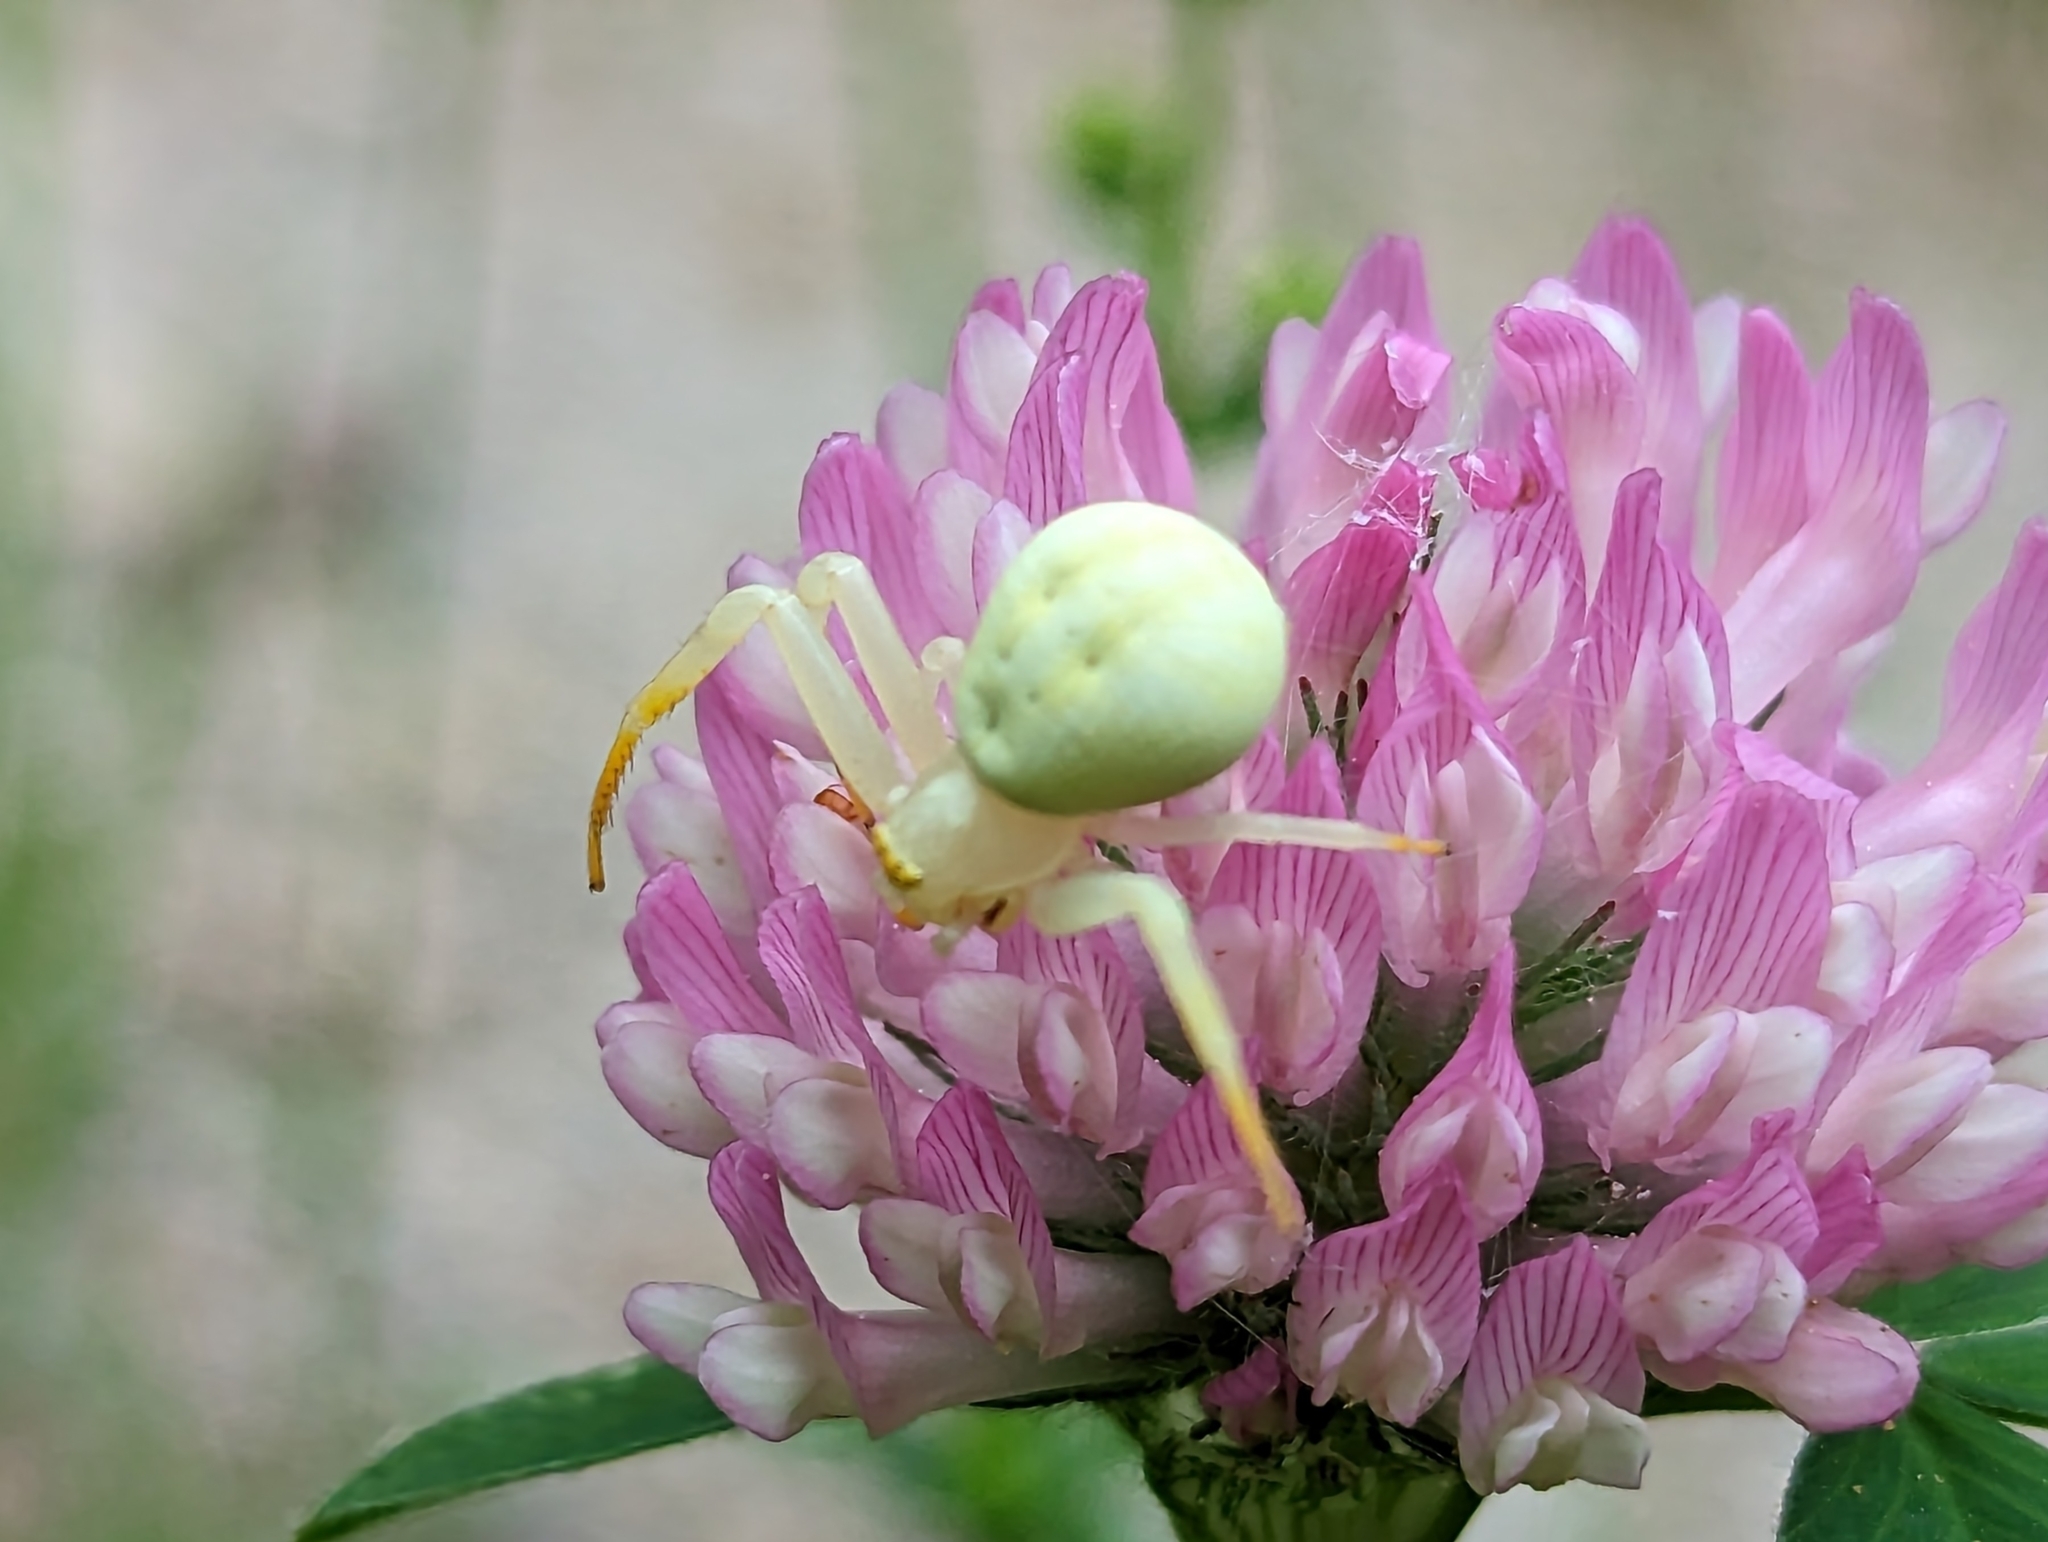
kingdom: Animalia
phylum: Arthropoda
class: Arachnida
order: Araneae
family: Thomisidae
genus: Misumena
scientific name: Misumena vatia
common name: Goldenrod crab spider
